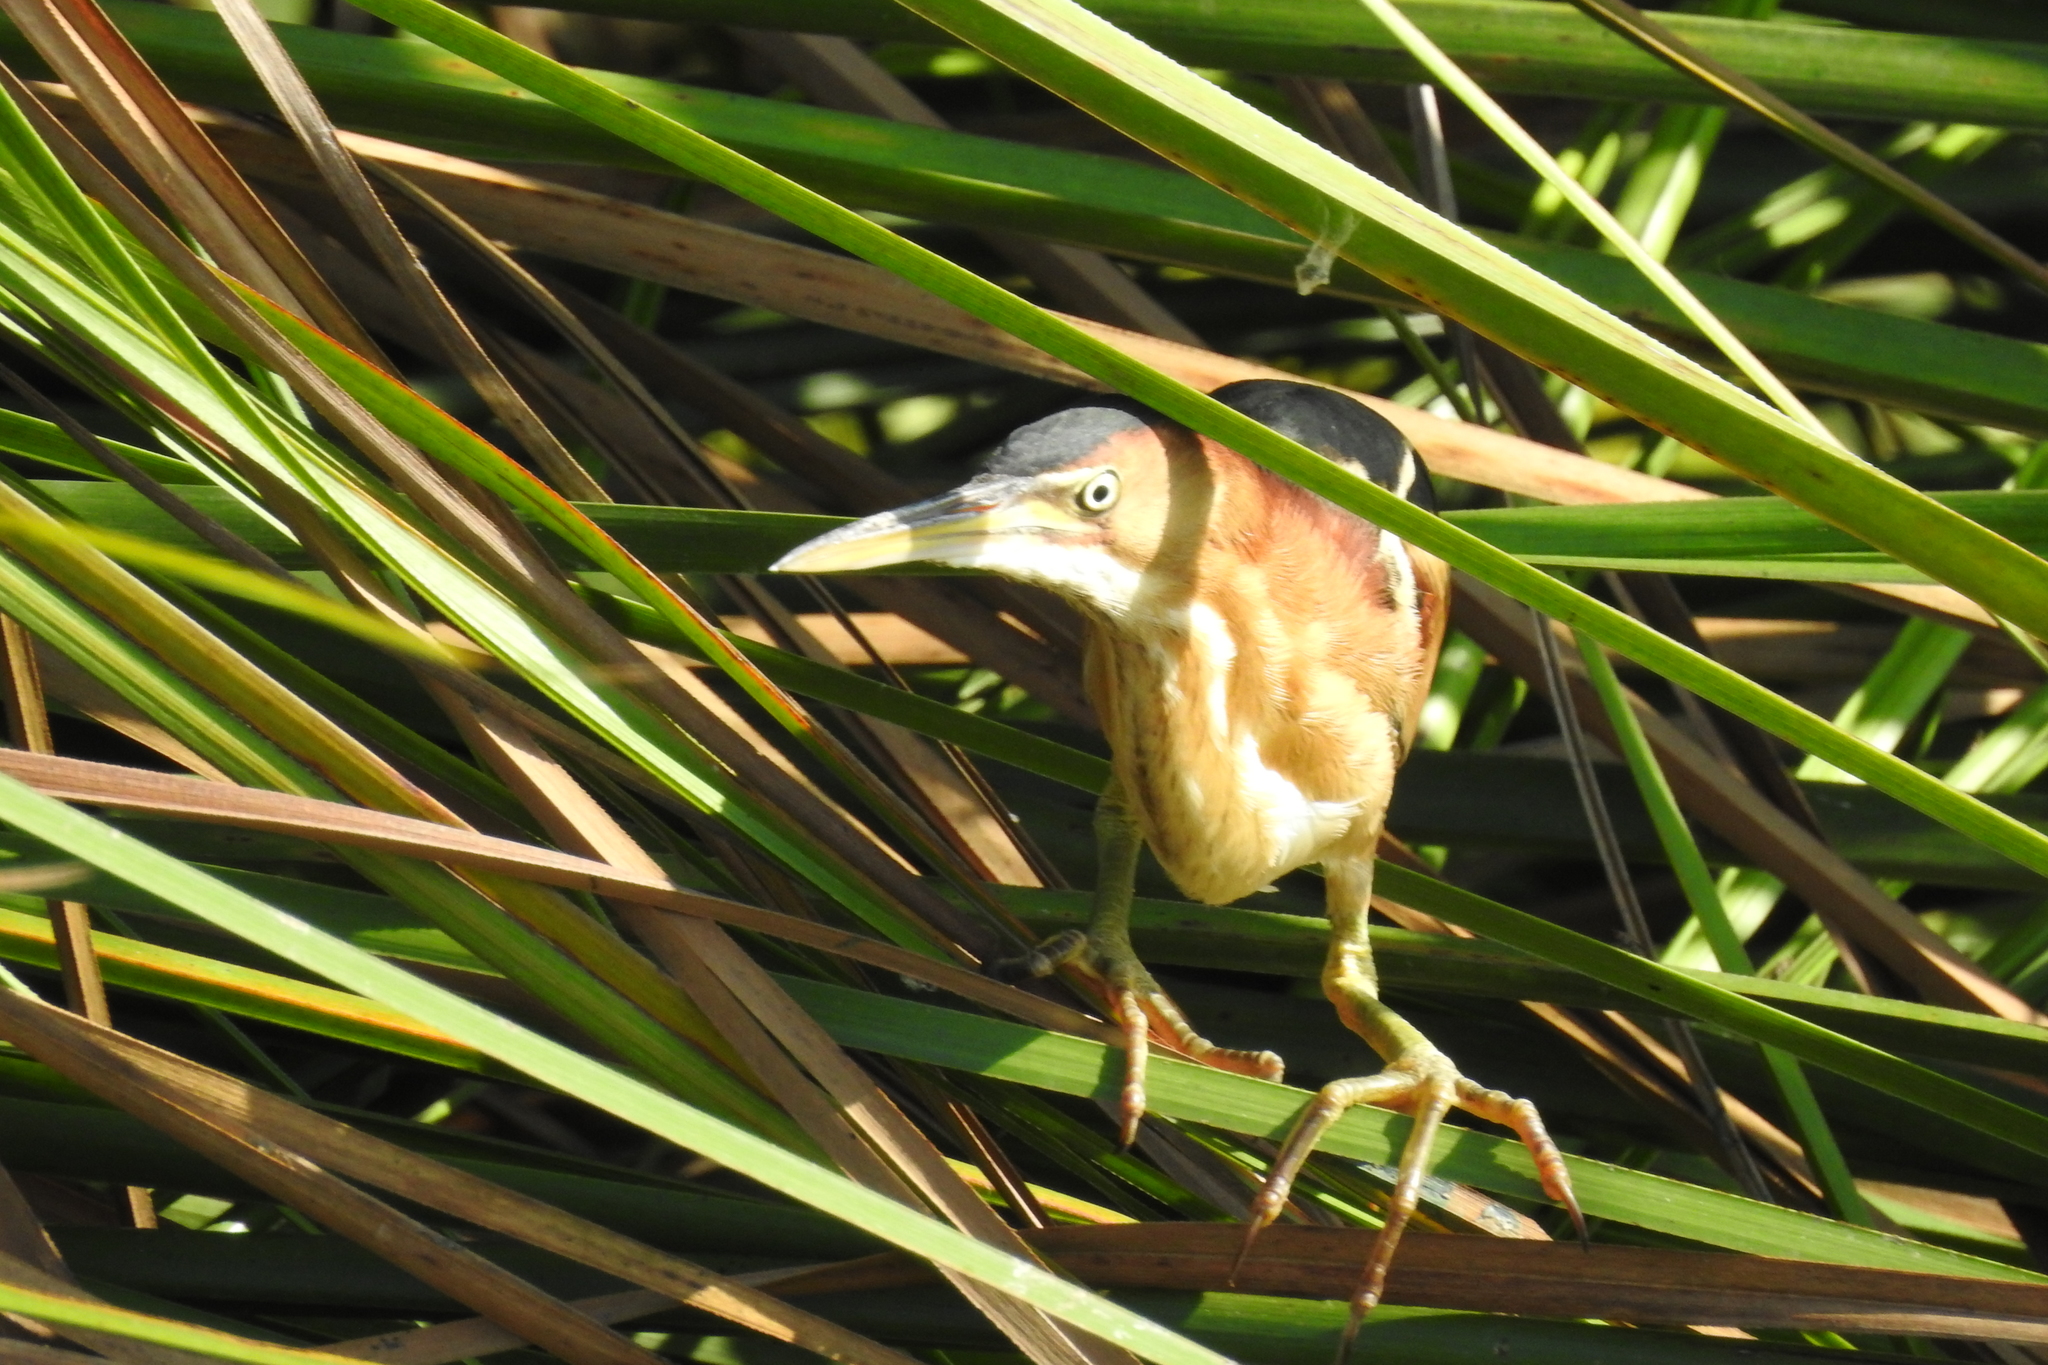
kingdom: Animalia
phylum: Chordata
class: Aves
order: Pelecaniformes
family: Ardeidae
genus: Ixobrychus
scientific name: Ixobrychus exilis
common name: Least bittern
